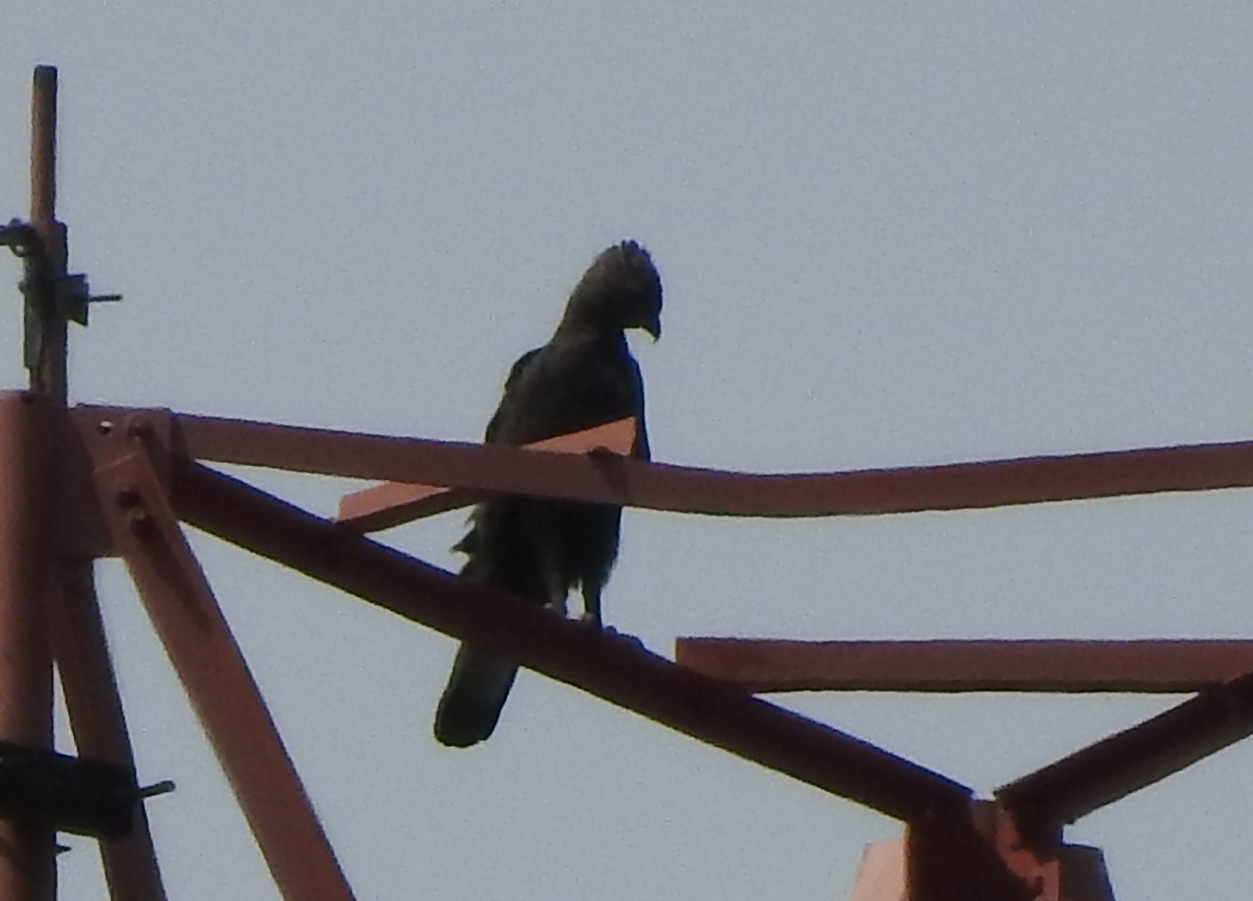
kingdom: Animalia
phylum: Chordata
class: Aves
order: Accipitriformes
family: Accipitridae
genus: Nisaetus
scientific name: Nisaetus cirrhatus
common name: Changeable hawk-eagle
